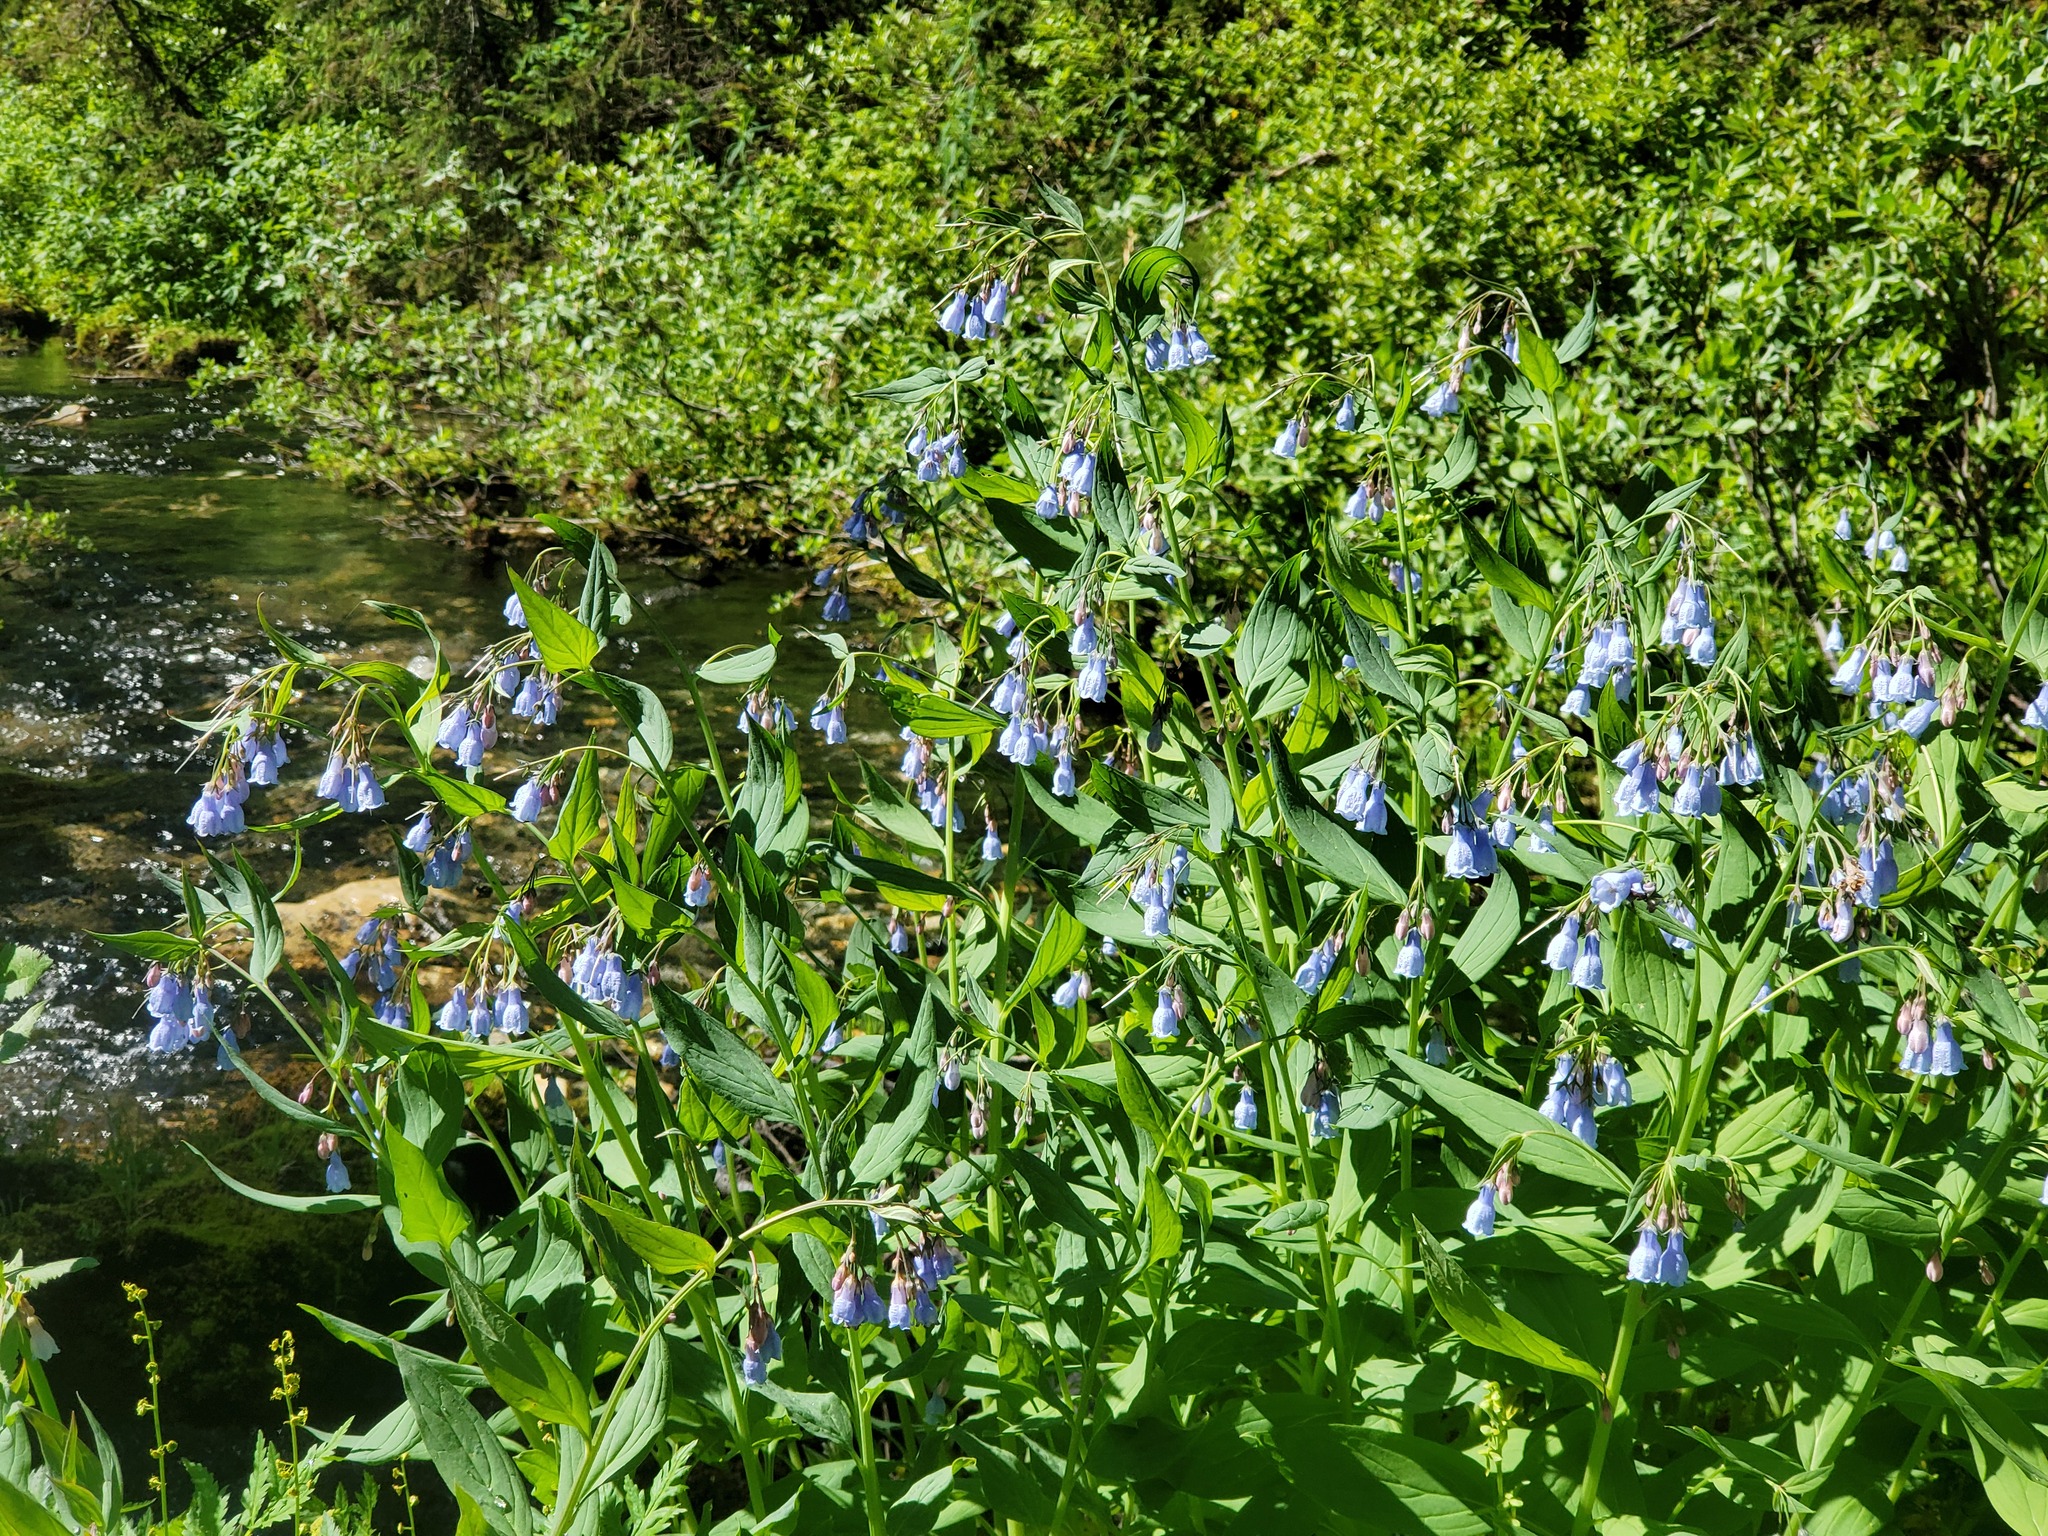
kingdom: Plantae
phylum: Tracheophyta
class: Magnoliopsida
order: Boraginales
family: Boraginaceae
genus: Mertensia
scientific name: Mertensia paniculata
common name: Panicled bluebells
